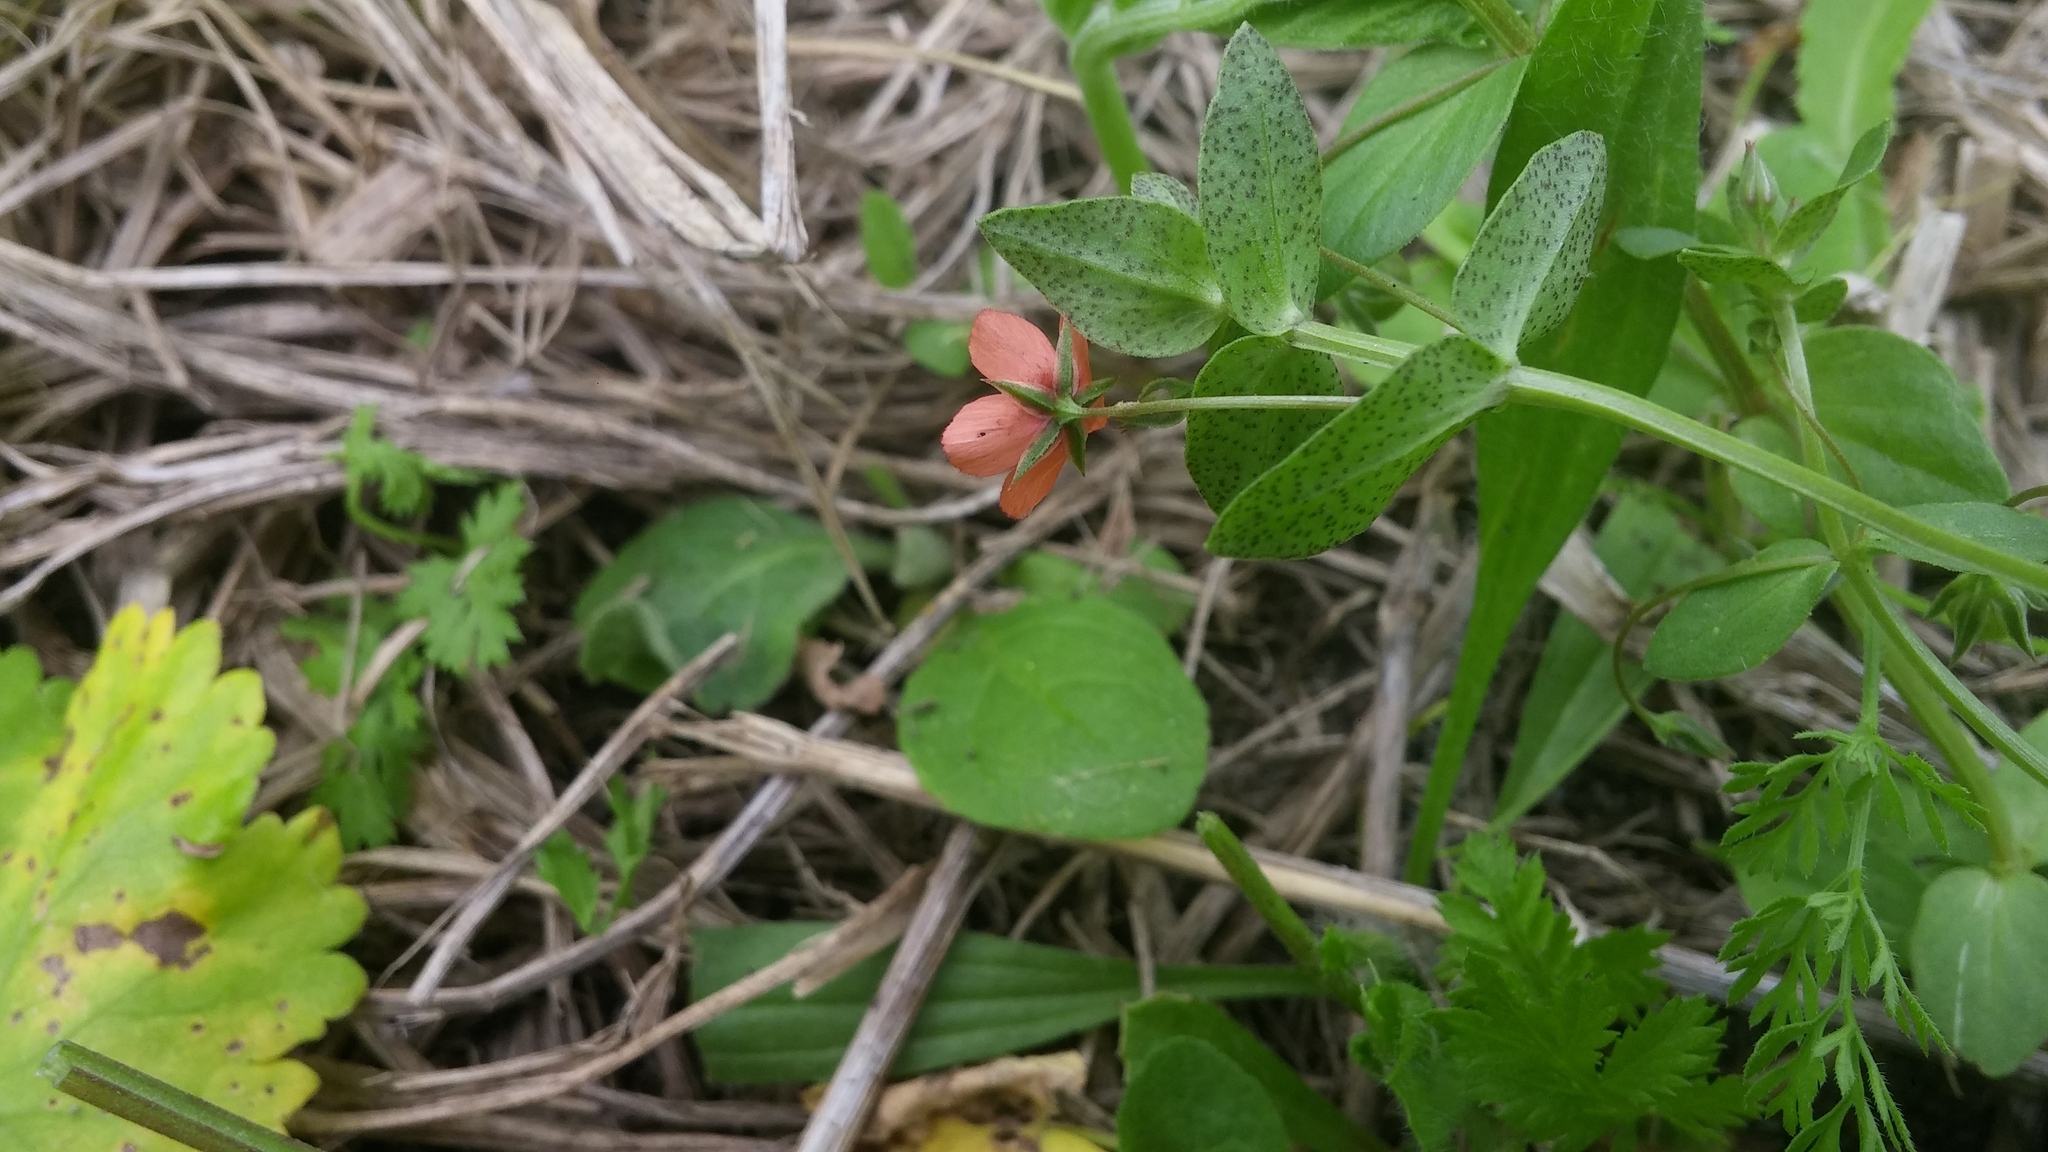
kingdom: Plantae
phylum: Tracheophyta
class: Magnoliopsida
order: Ericales
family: Primulaceae
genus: Lysimachia
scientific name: Lysimachia arvensis
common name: Scarlet pimpernel
